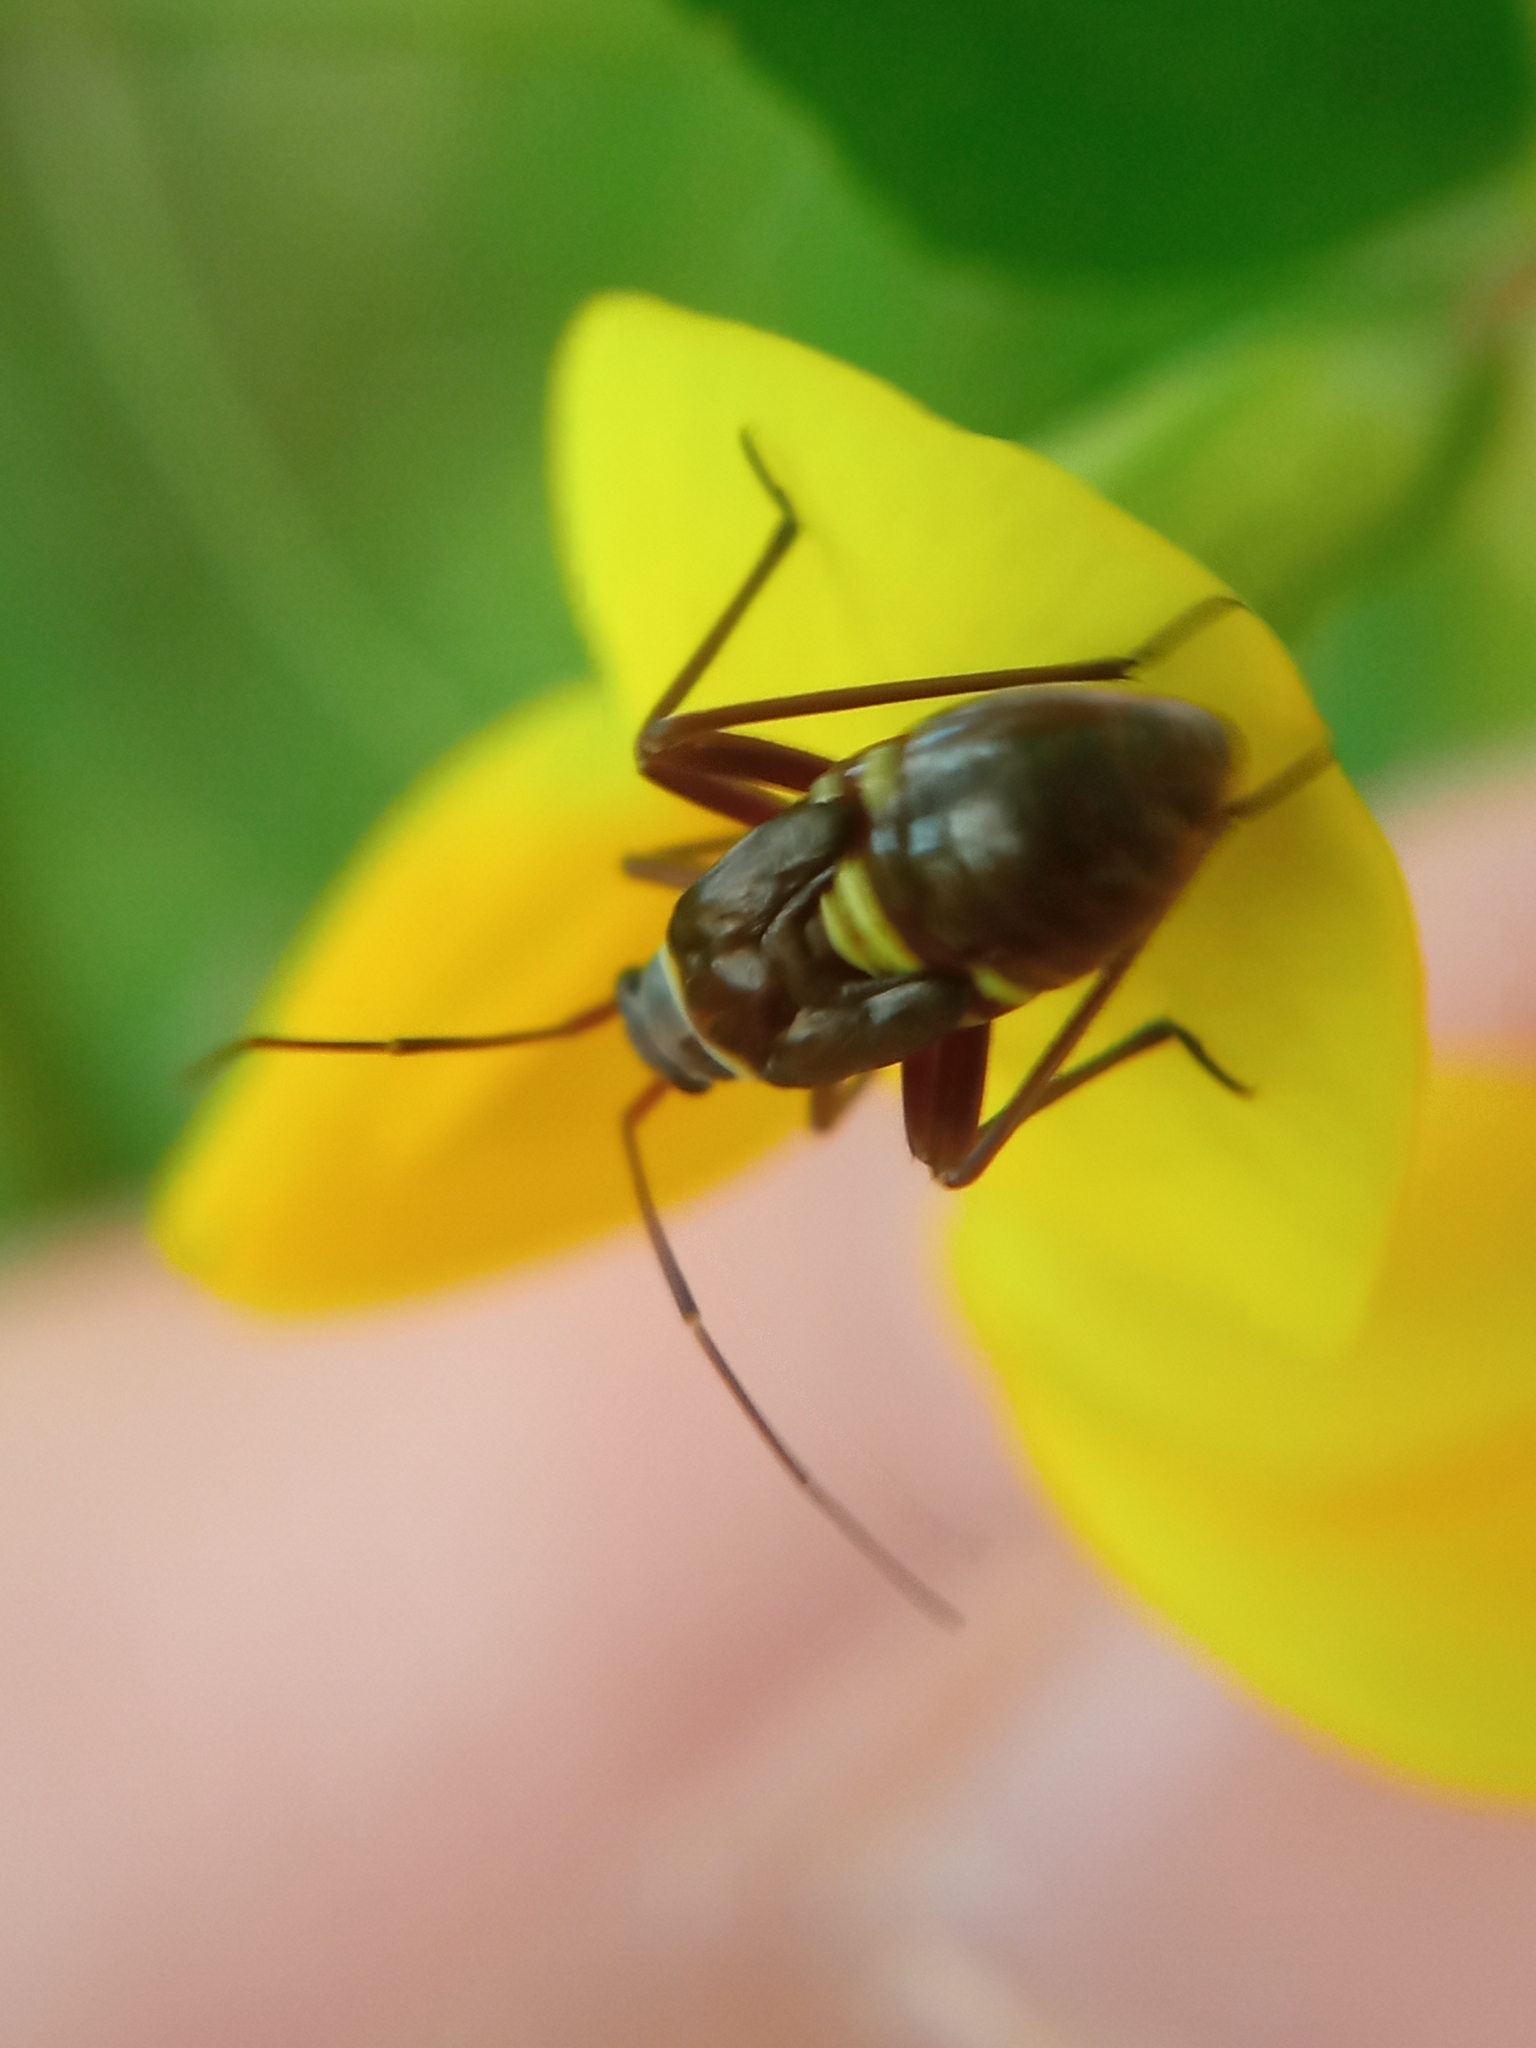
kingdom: Animalia
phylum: Arthropoda
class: Insecta
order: Hemiptera
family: Miridae
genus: Hadrodemus
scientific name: Hadrodemus m-flavum
